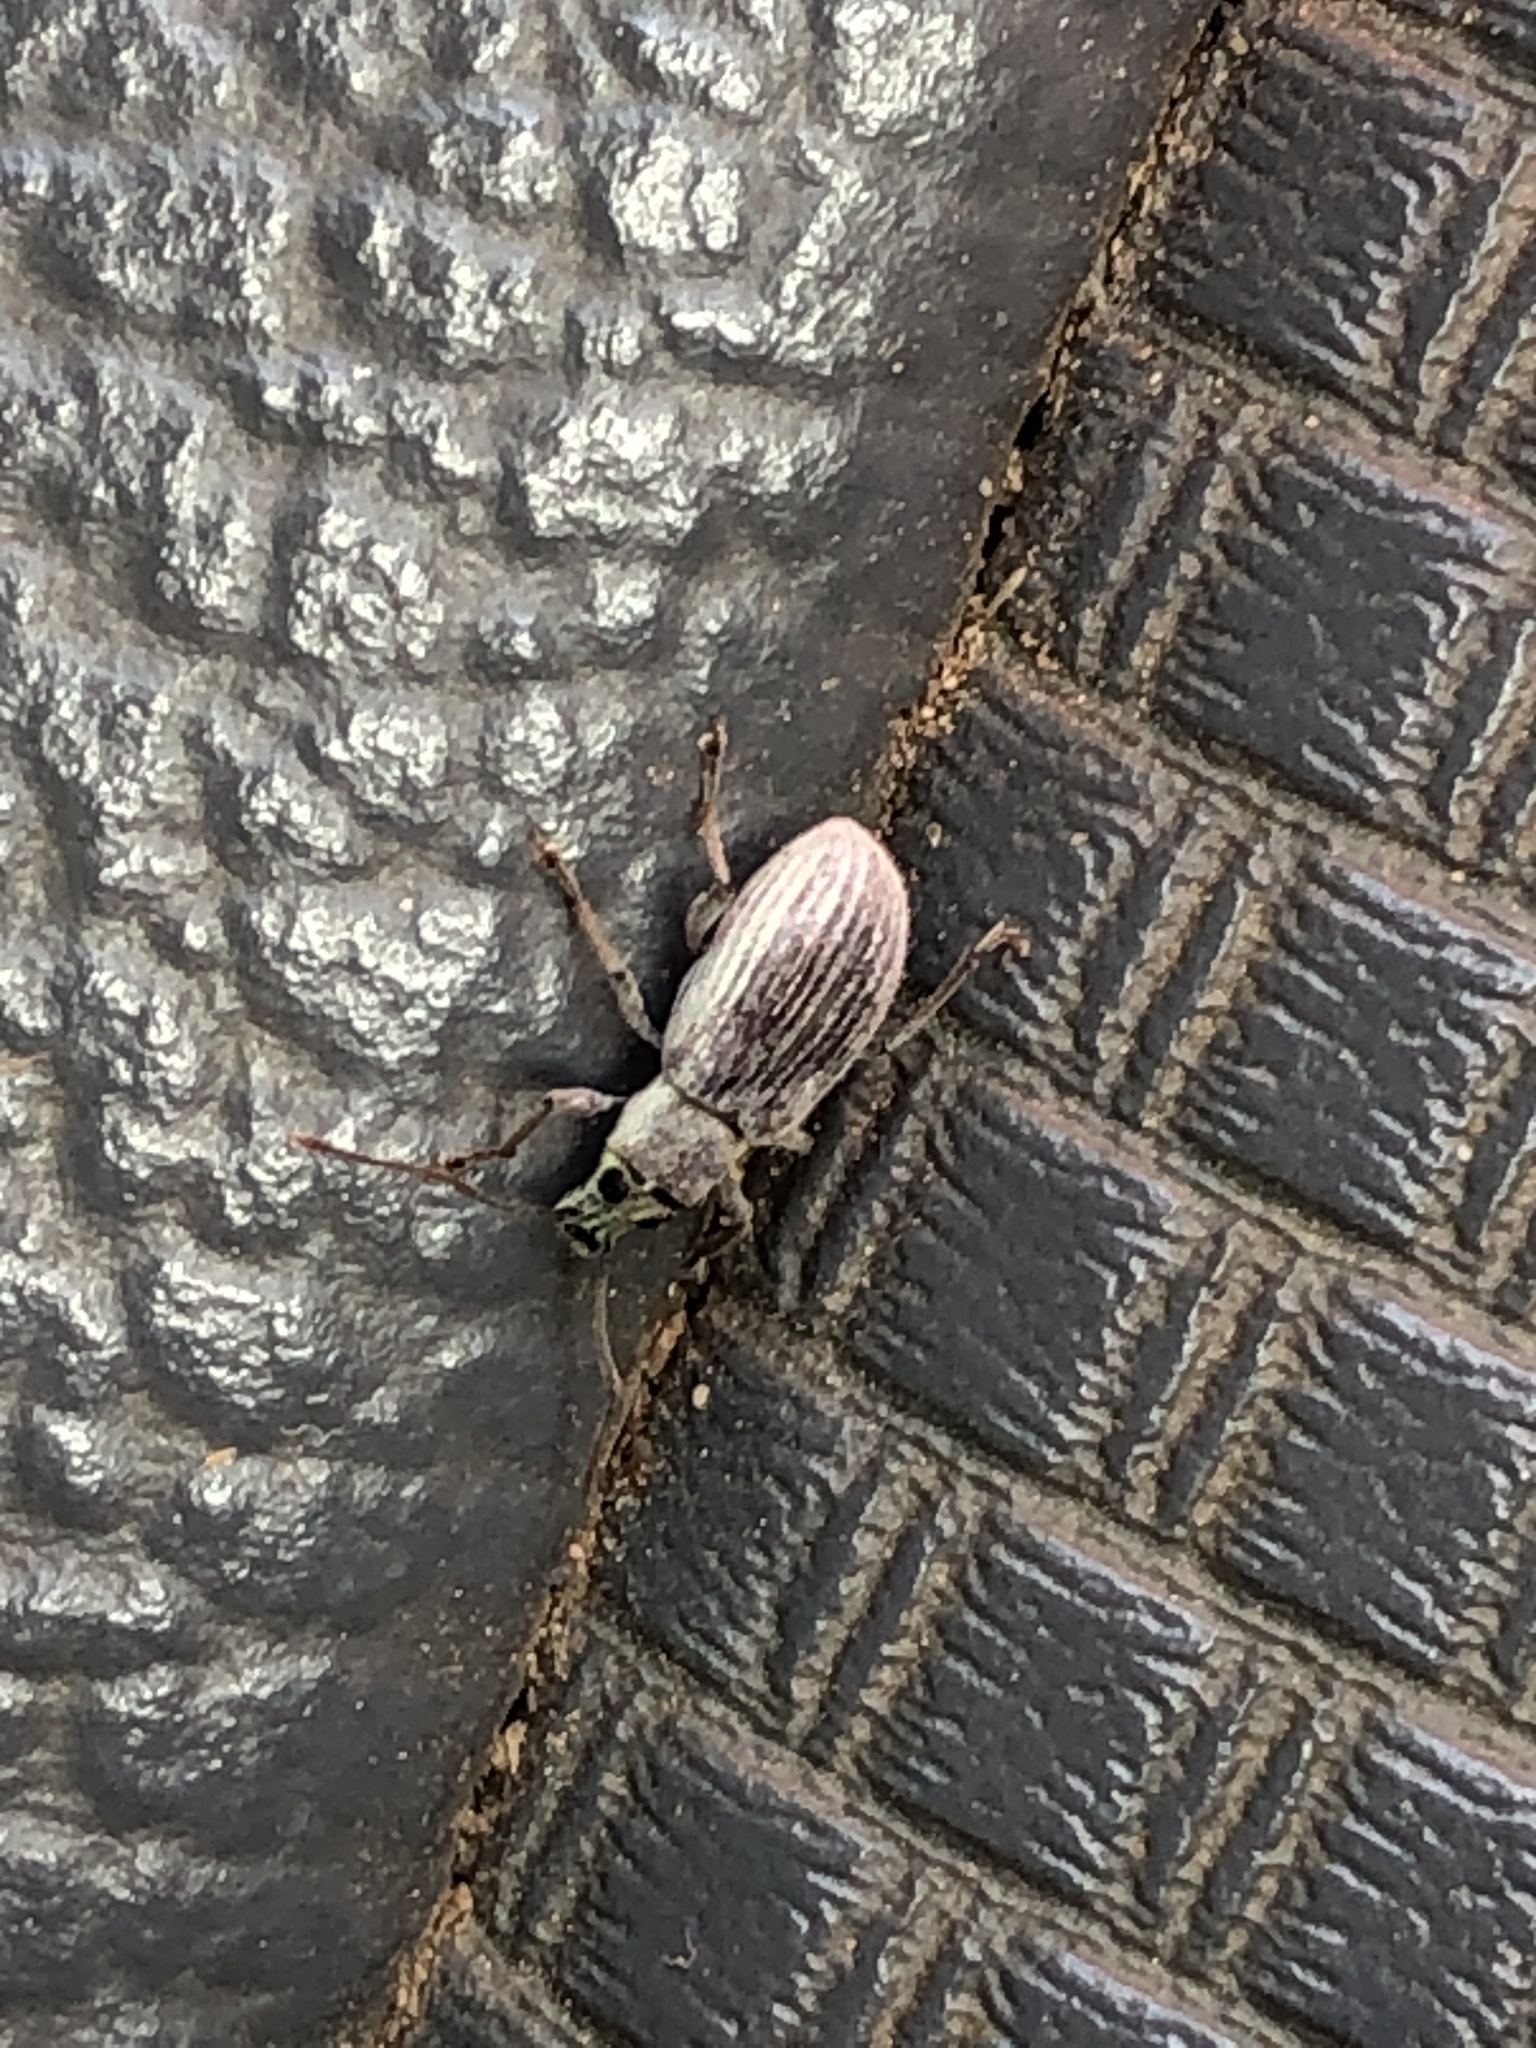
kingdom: Animalia
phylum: Arthropoda
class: Insecta
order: Coleoptera
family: Curculionidae
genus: Cyrtepistomus
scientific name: Cyrtepistomus castaneus
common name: Weevil
